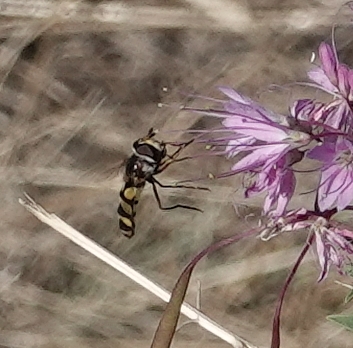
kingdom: Animalia
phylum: Arthropoda
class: Insecta
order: Diptera
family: Syrphidae
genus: Didea
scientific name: Didea fuscipes
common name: Undivided lucent
